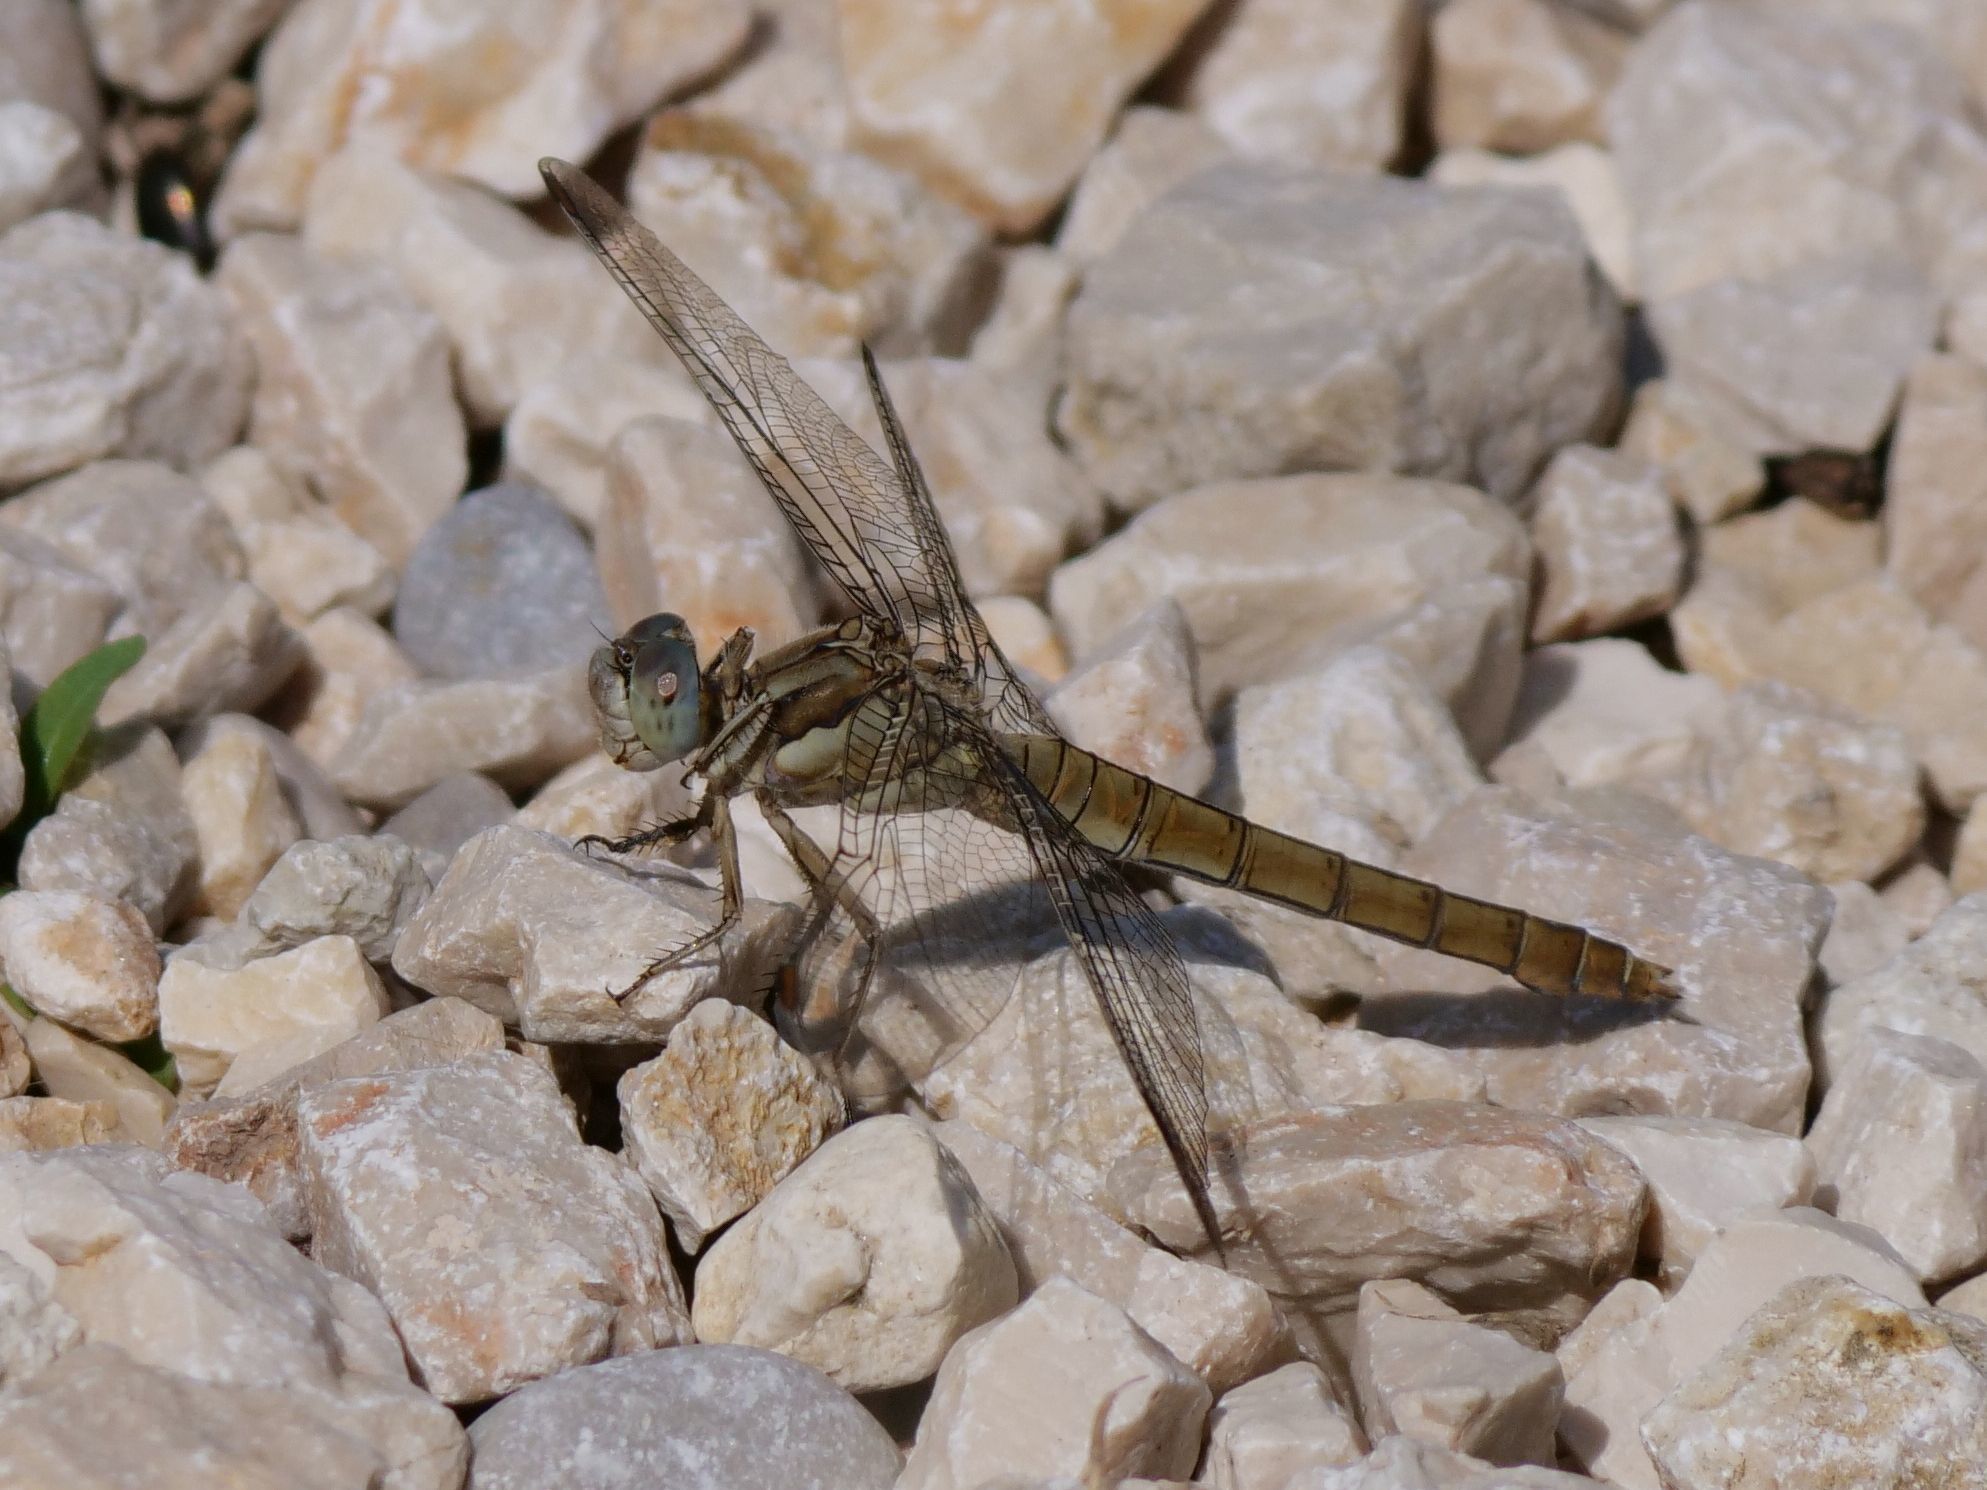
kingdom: Animalia
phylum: Arthropoda
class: Insecta
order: Odonata
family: Libellulidae
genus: Orthetrum
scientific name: Orthetrum brunneum
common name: Southern skimmer
